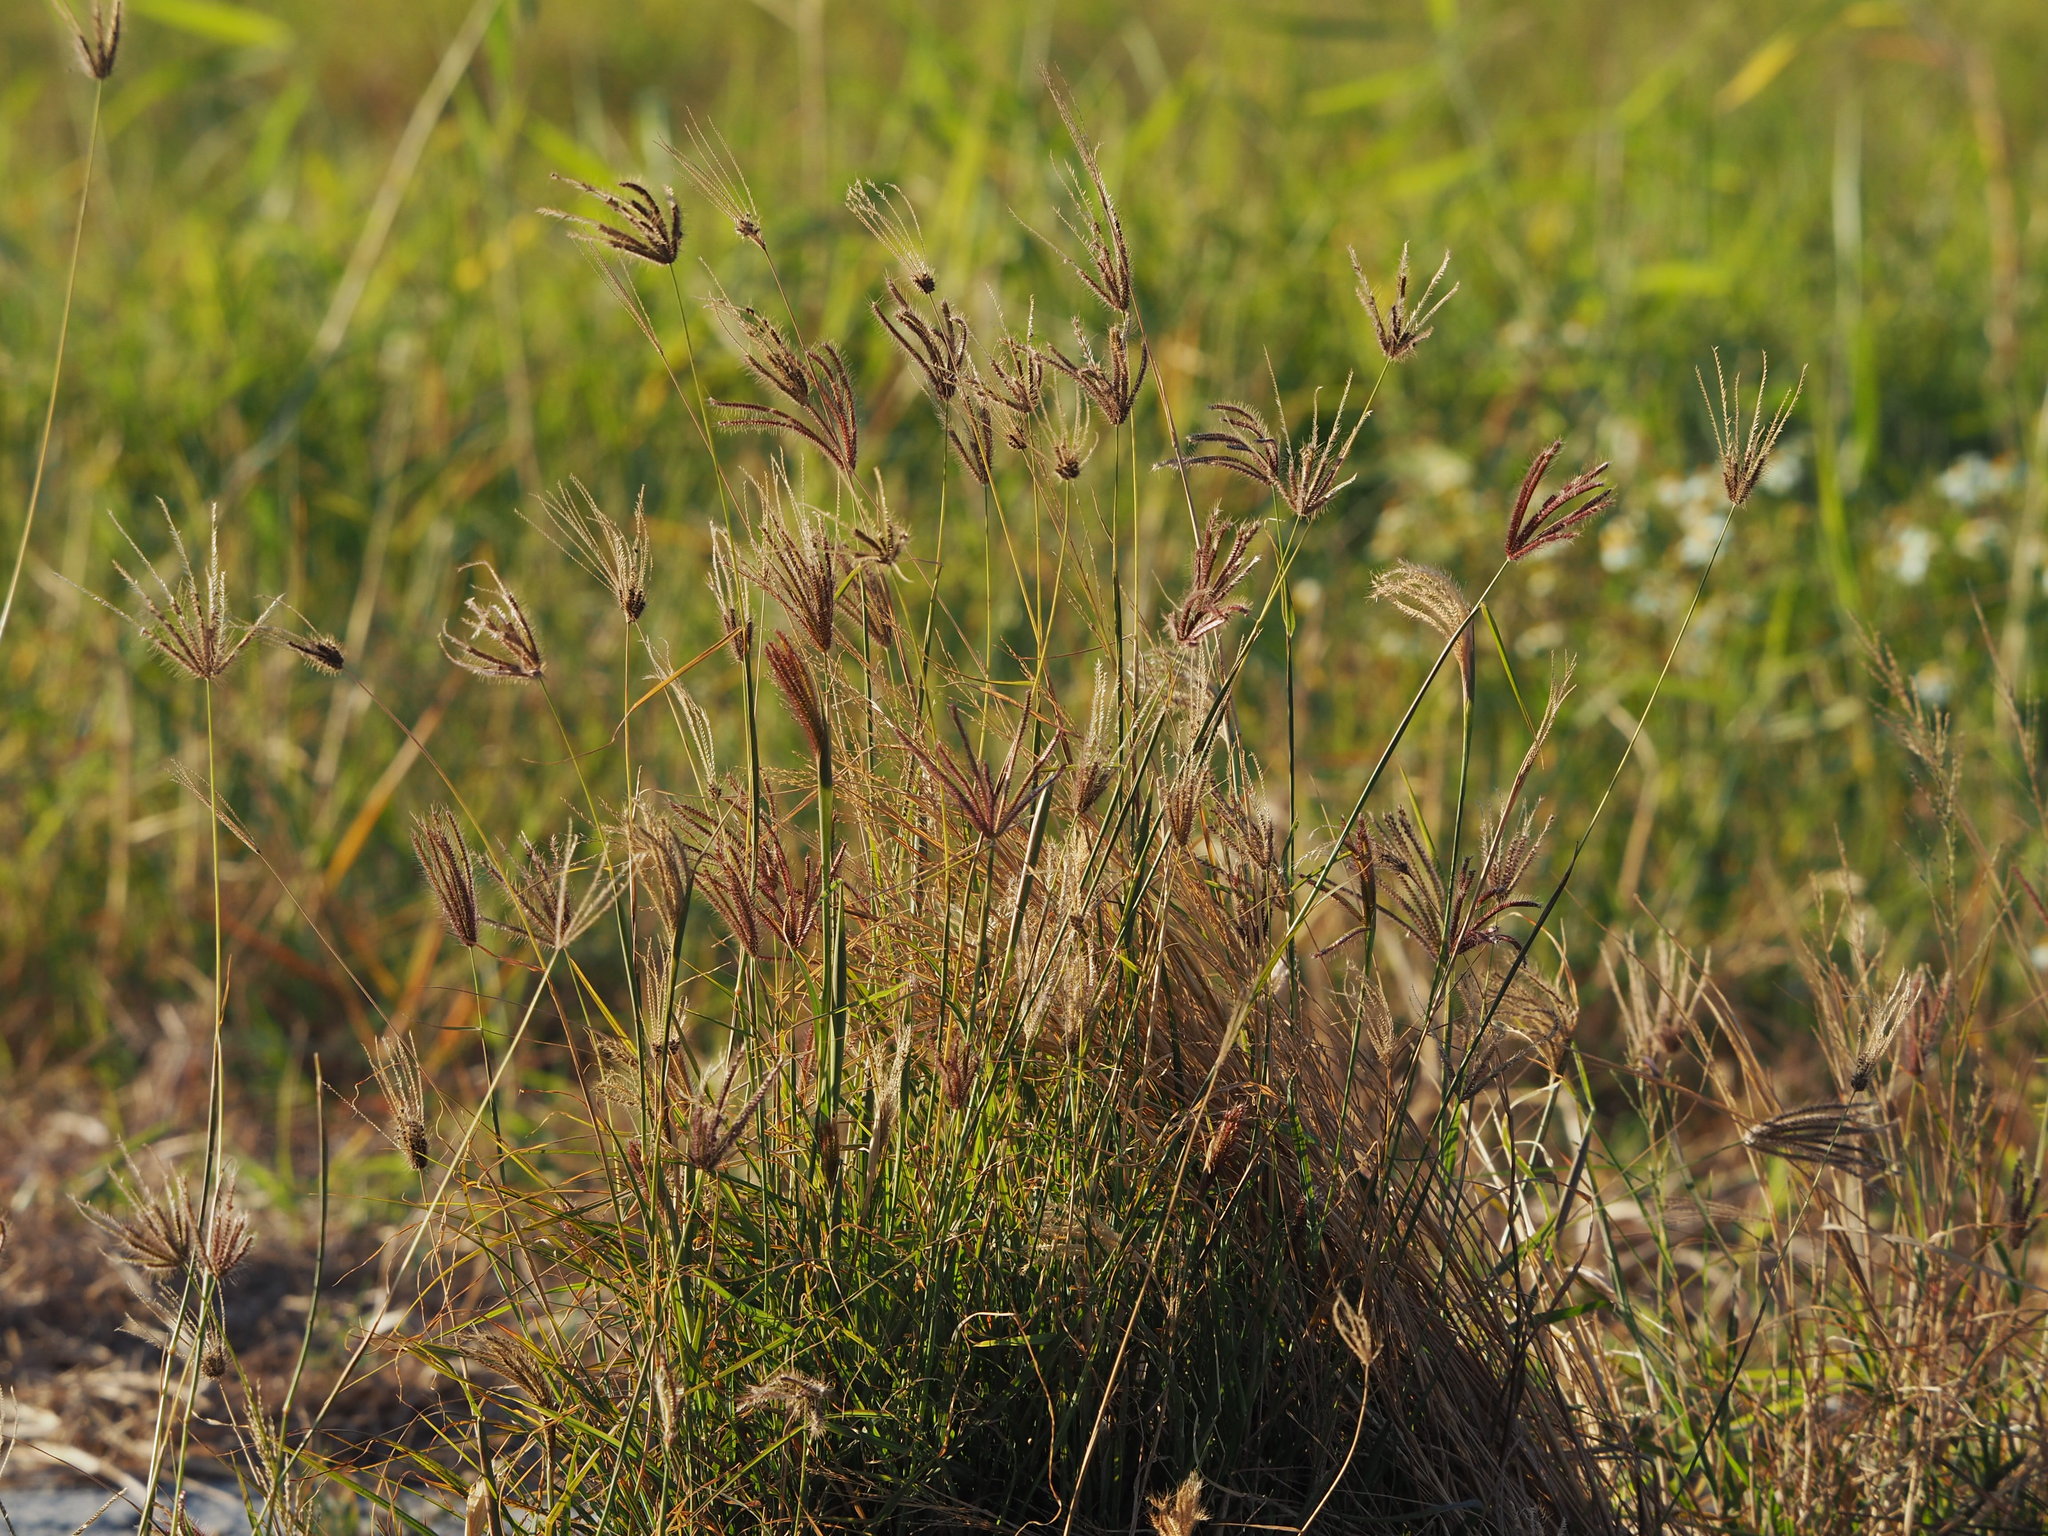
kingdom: Plantae
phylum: Tracheophyta
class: Liliopsida
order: Poales
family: Poaceae
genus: Chloris
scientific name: Chloris barbata
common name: Swollen fingergrass
